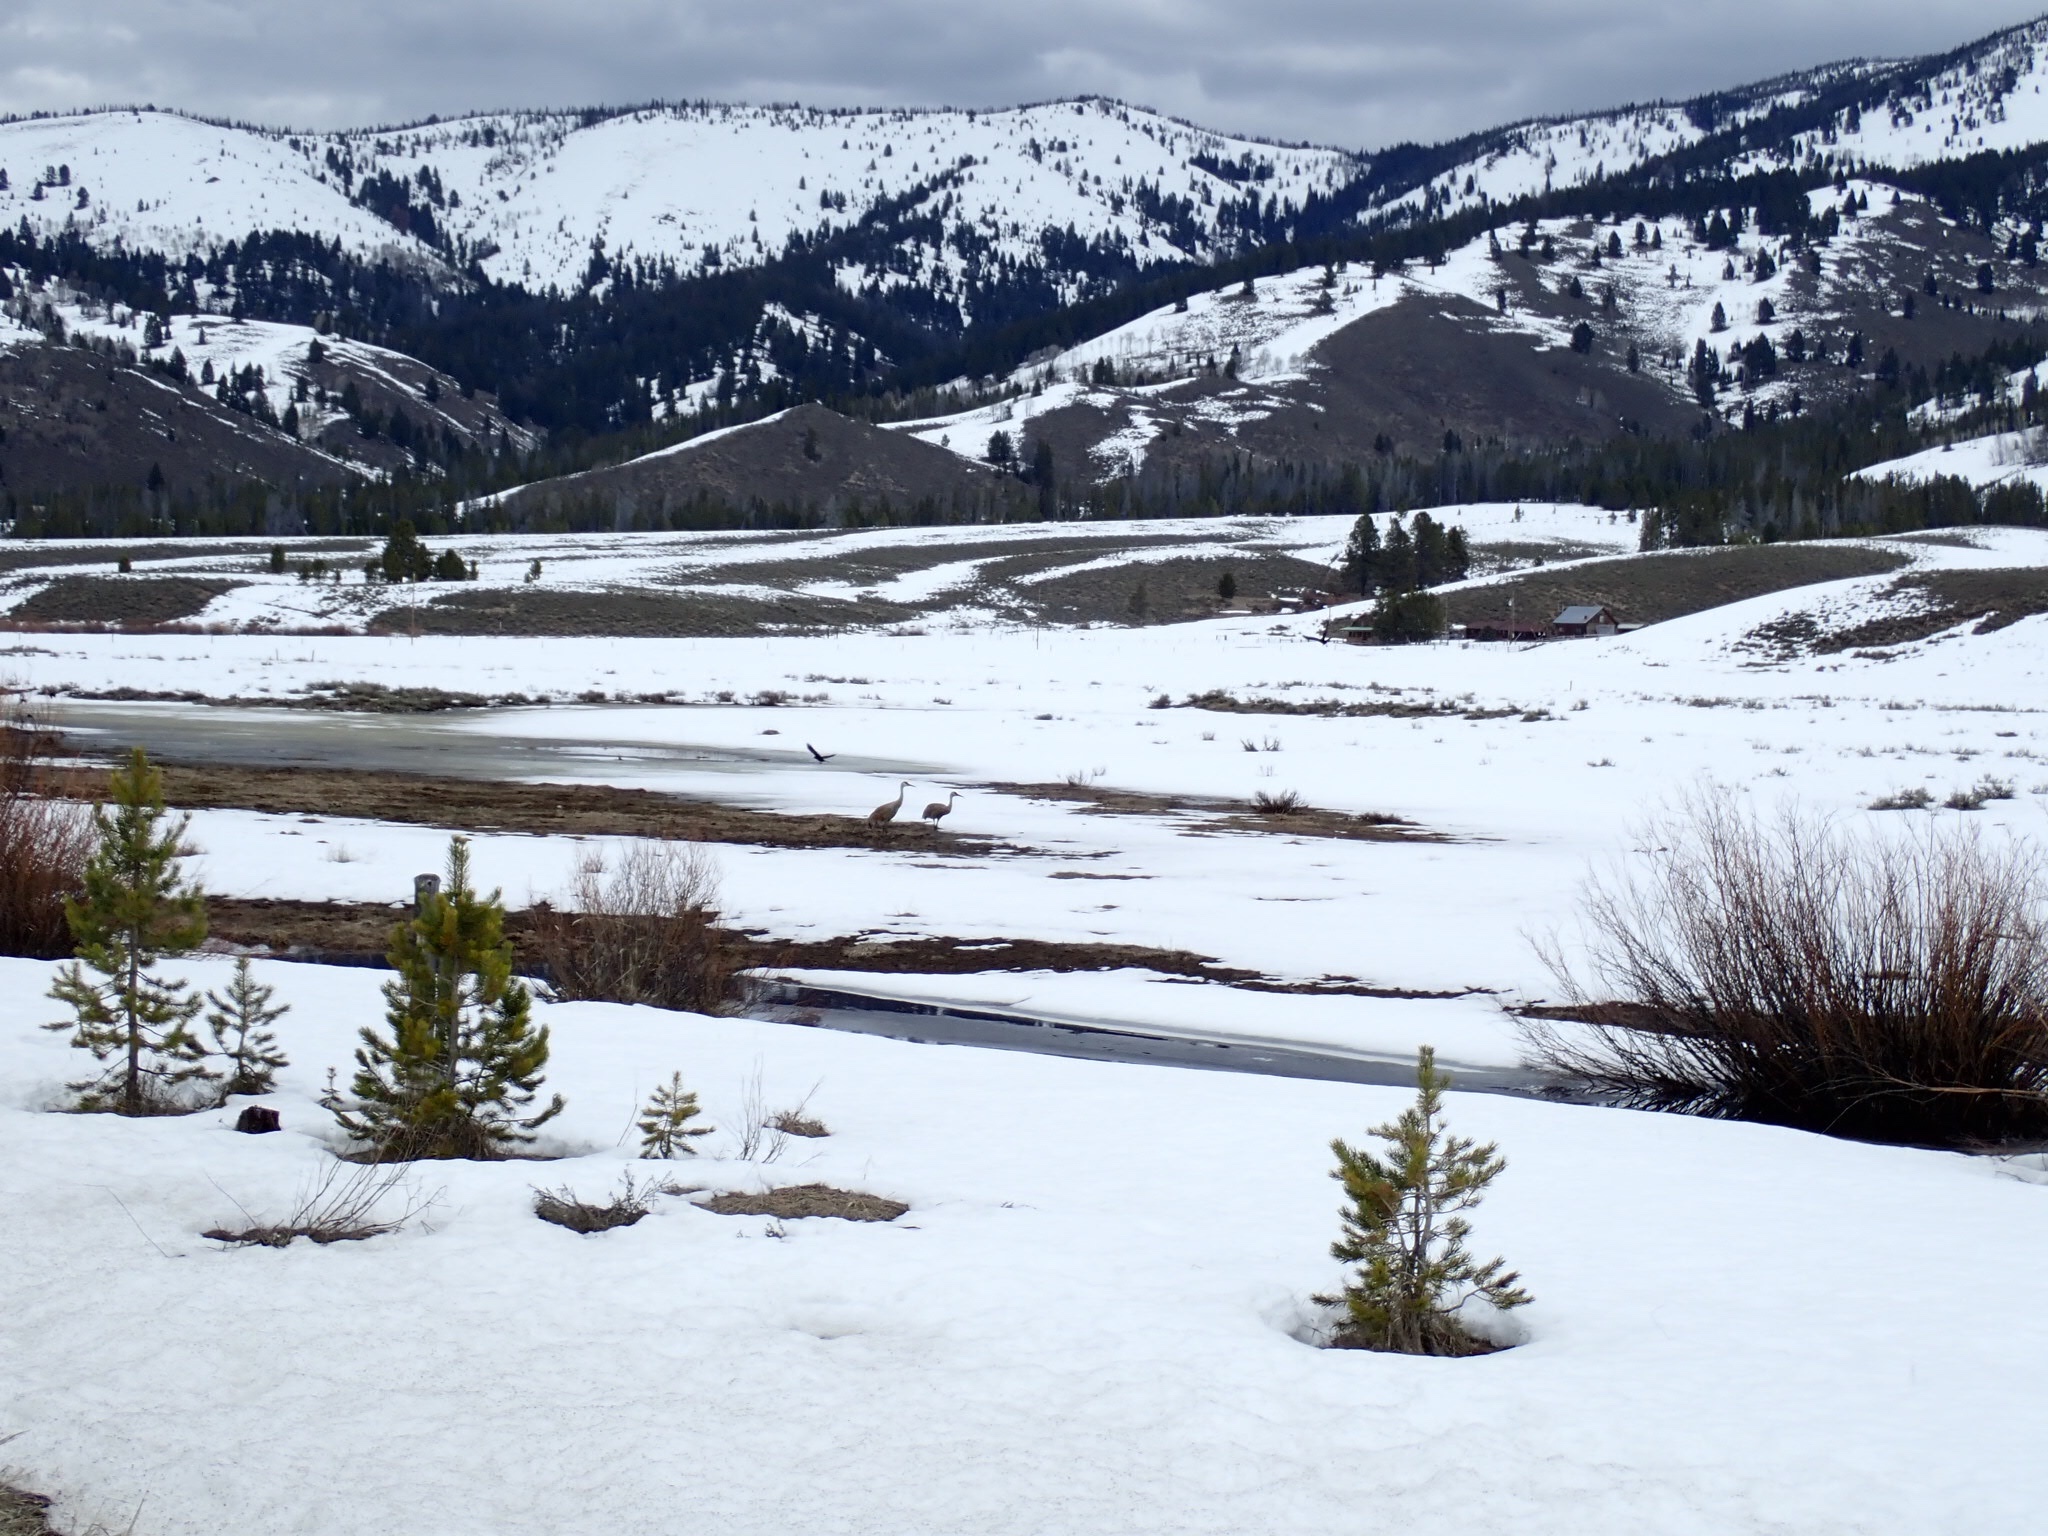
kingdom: Animalia
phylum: Chordata
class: Aves
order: Gruiformes
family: Gruidae
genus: Grus
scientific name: Grus canadensis
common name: Sandhill crane
